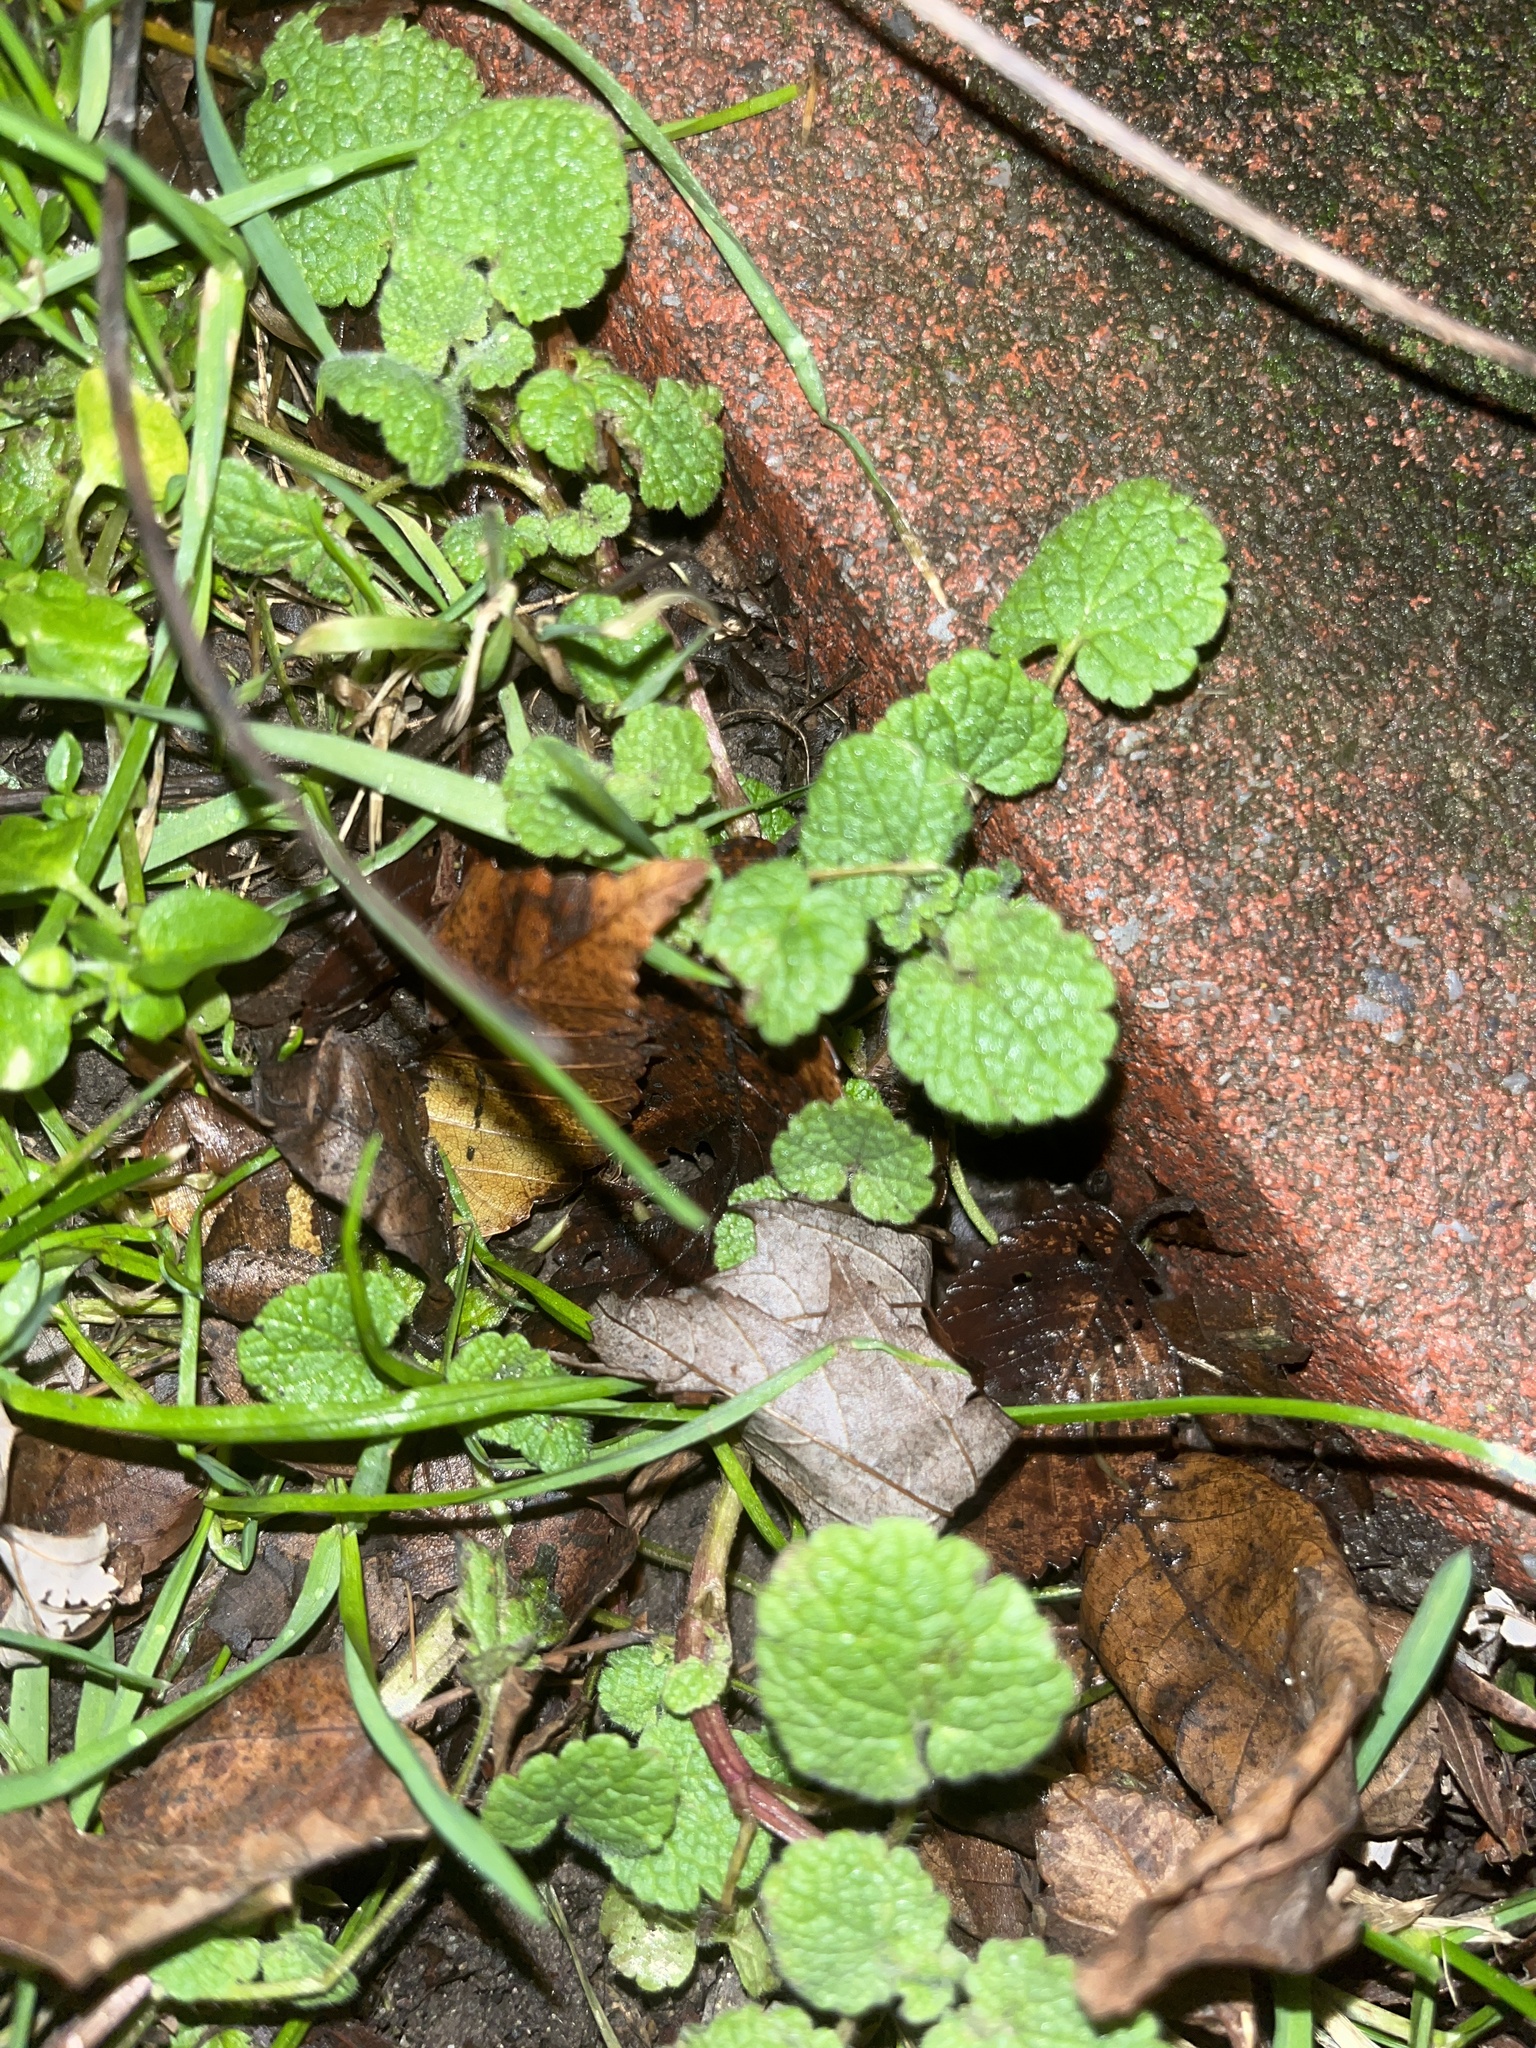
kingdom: Plantae
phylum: Tracheophyta
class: Magnoliopsida
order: Lamiales
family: Lamiaceae
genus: Lamium
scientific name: Lamium purpureum
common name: Red dead-nettle
